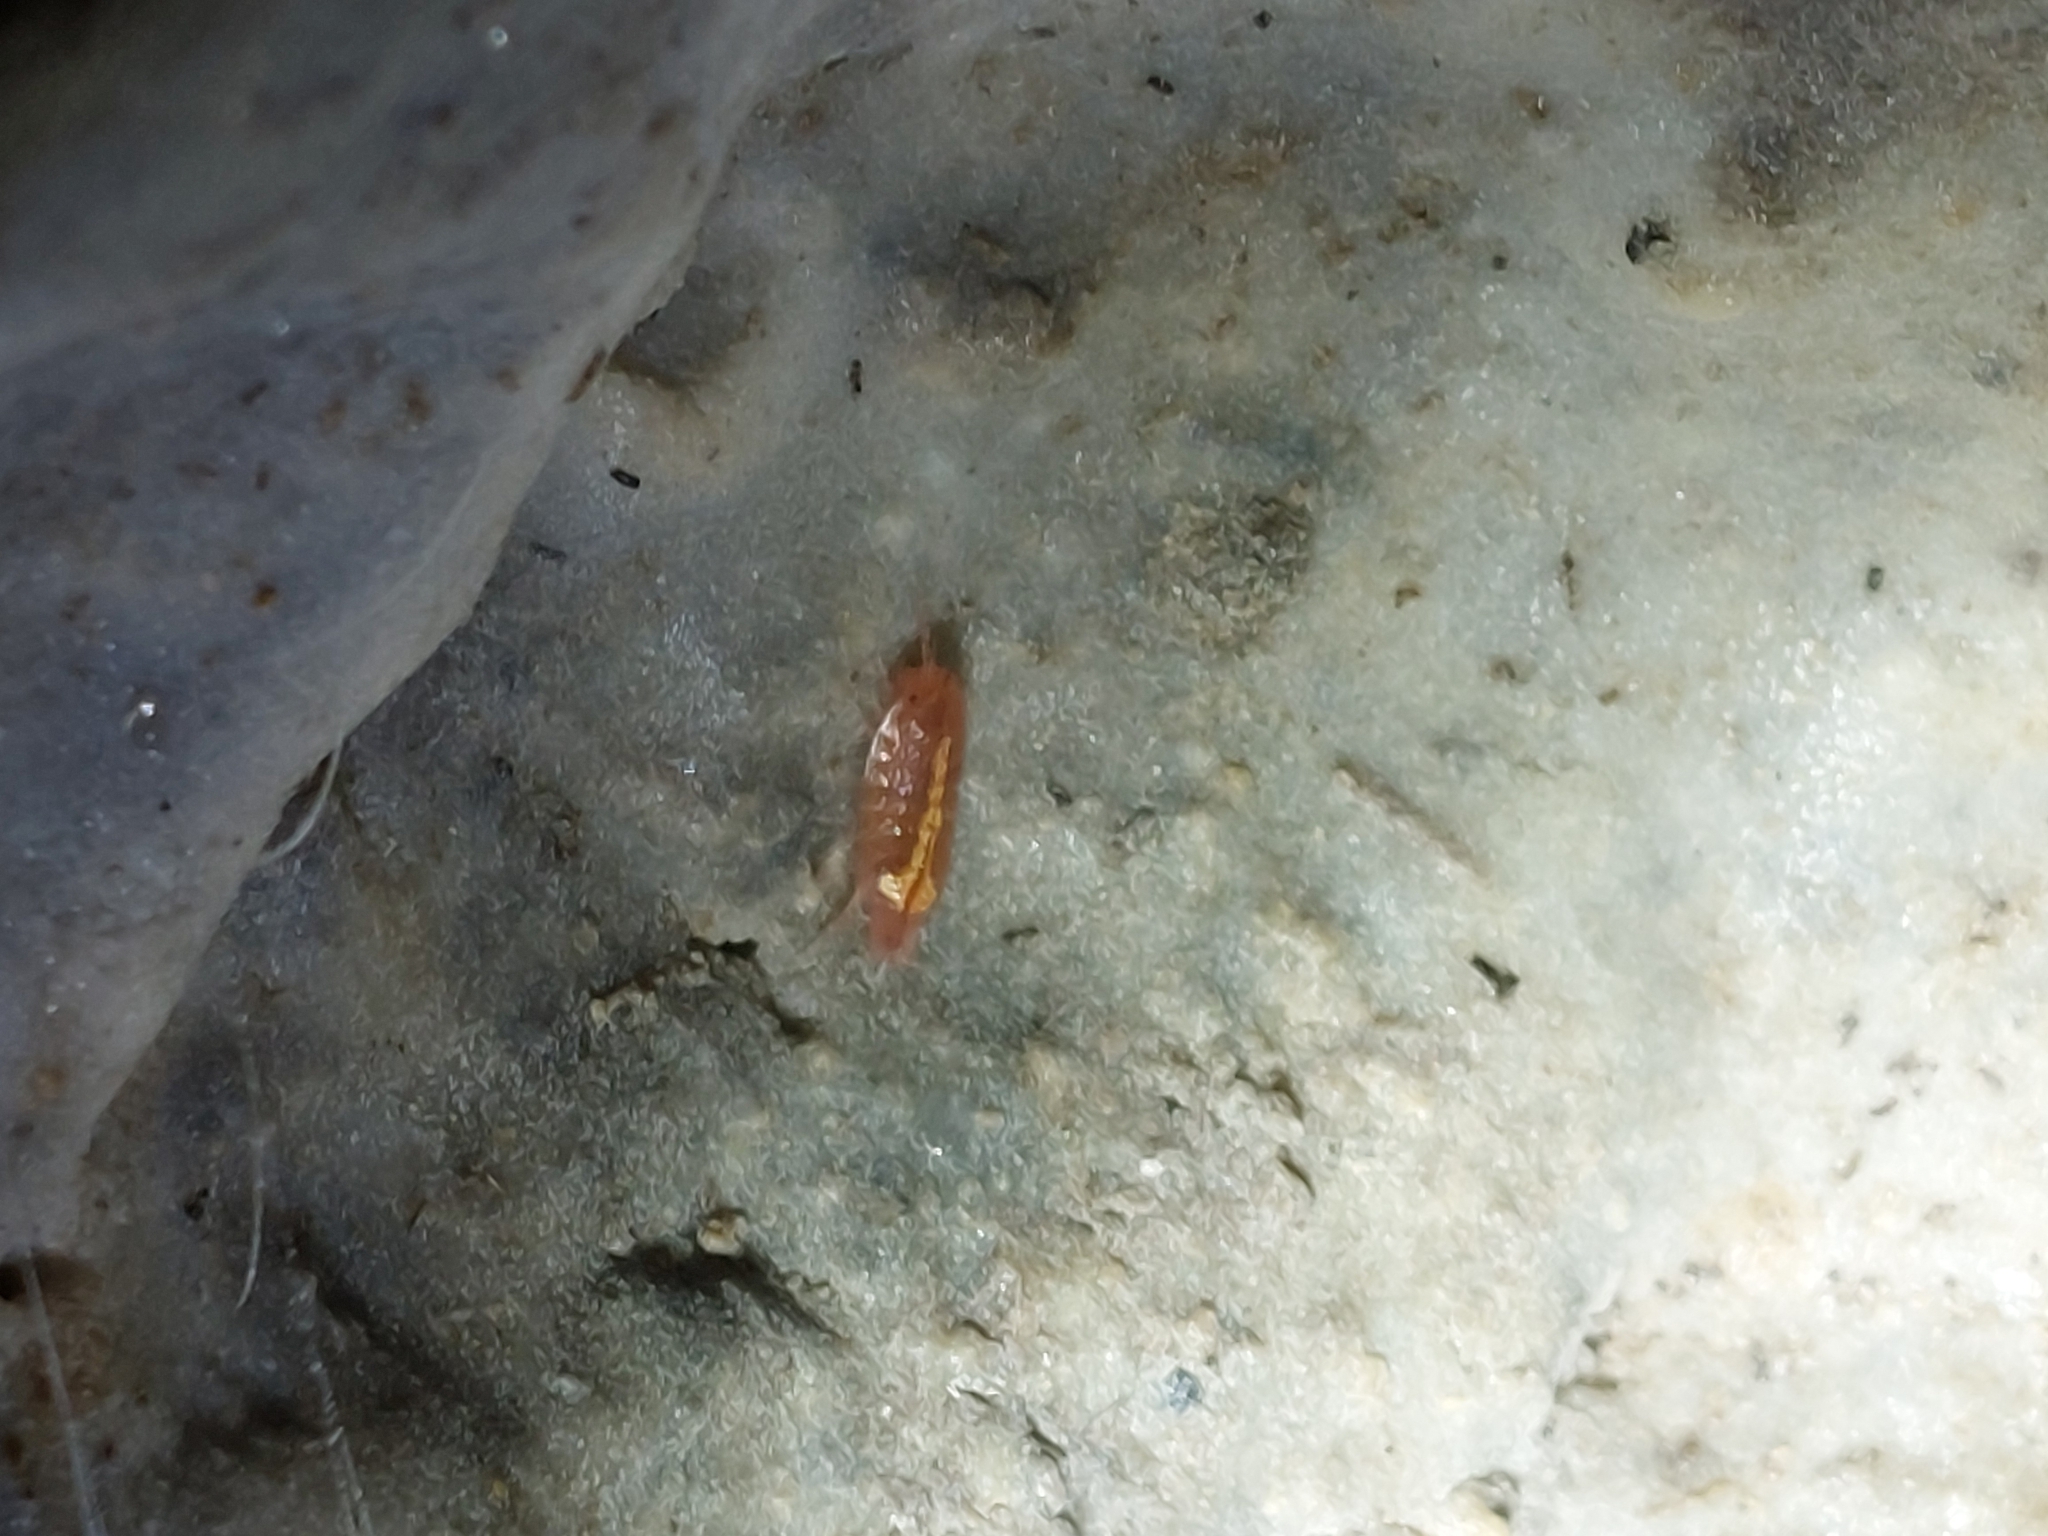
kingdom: Animalia
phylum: Arthropoda
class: Malacostraca
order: Isopoda
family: Trichoniscidae
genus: Androniscus
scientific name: Androniscus dentiger
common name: Rosy woodlouse
